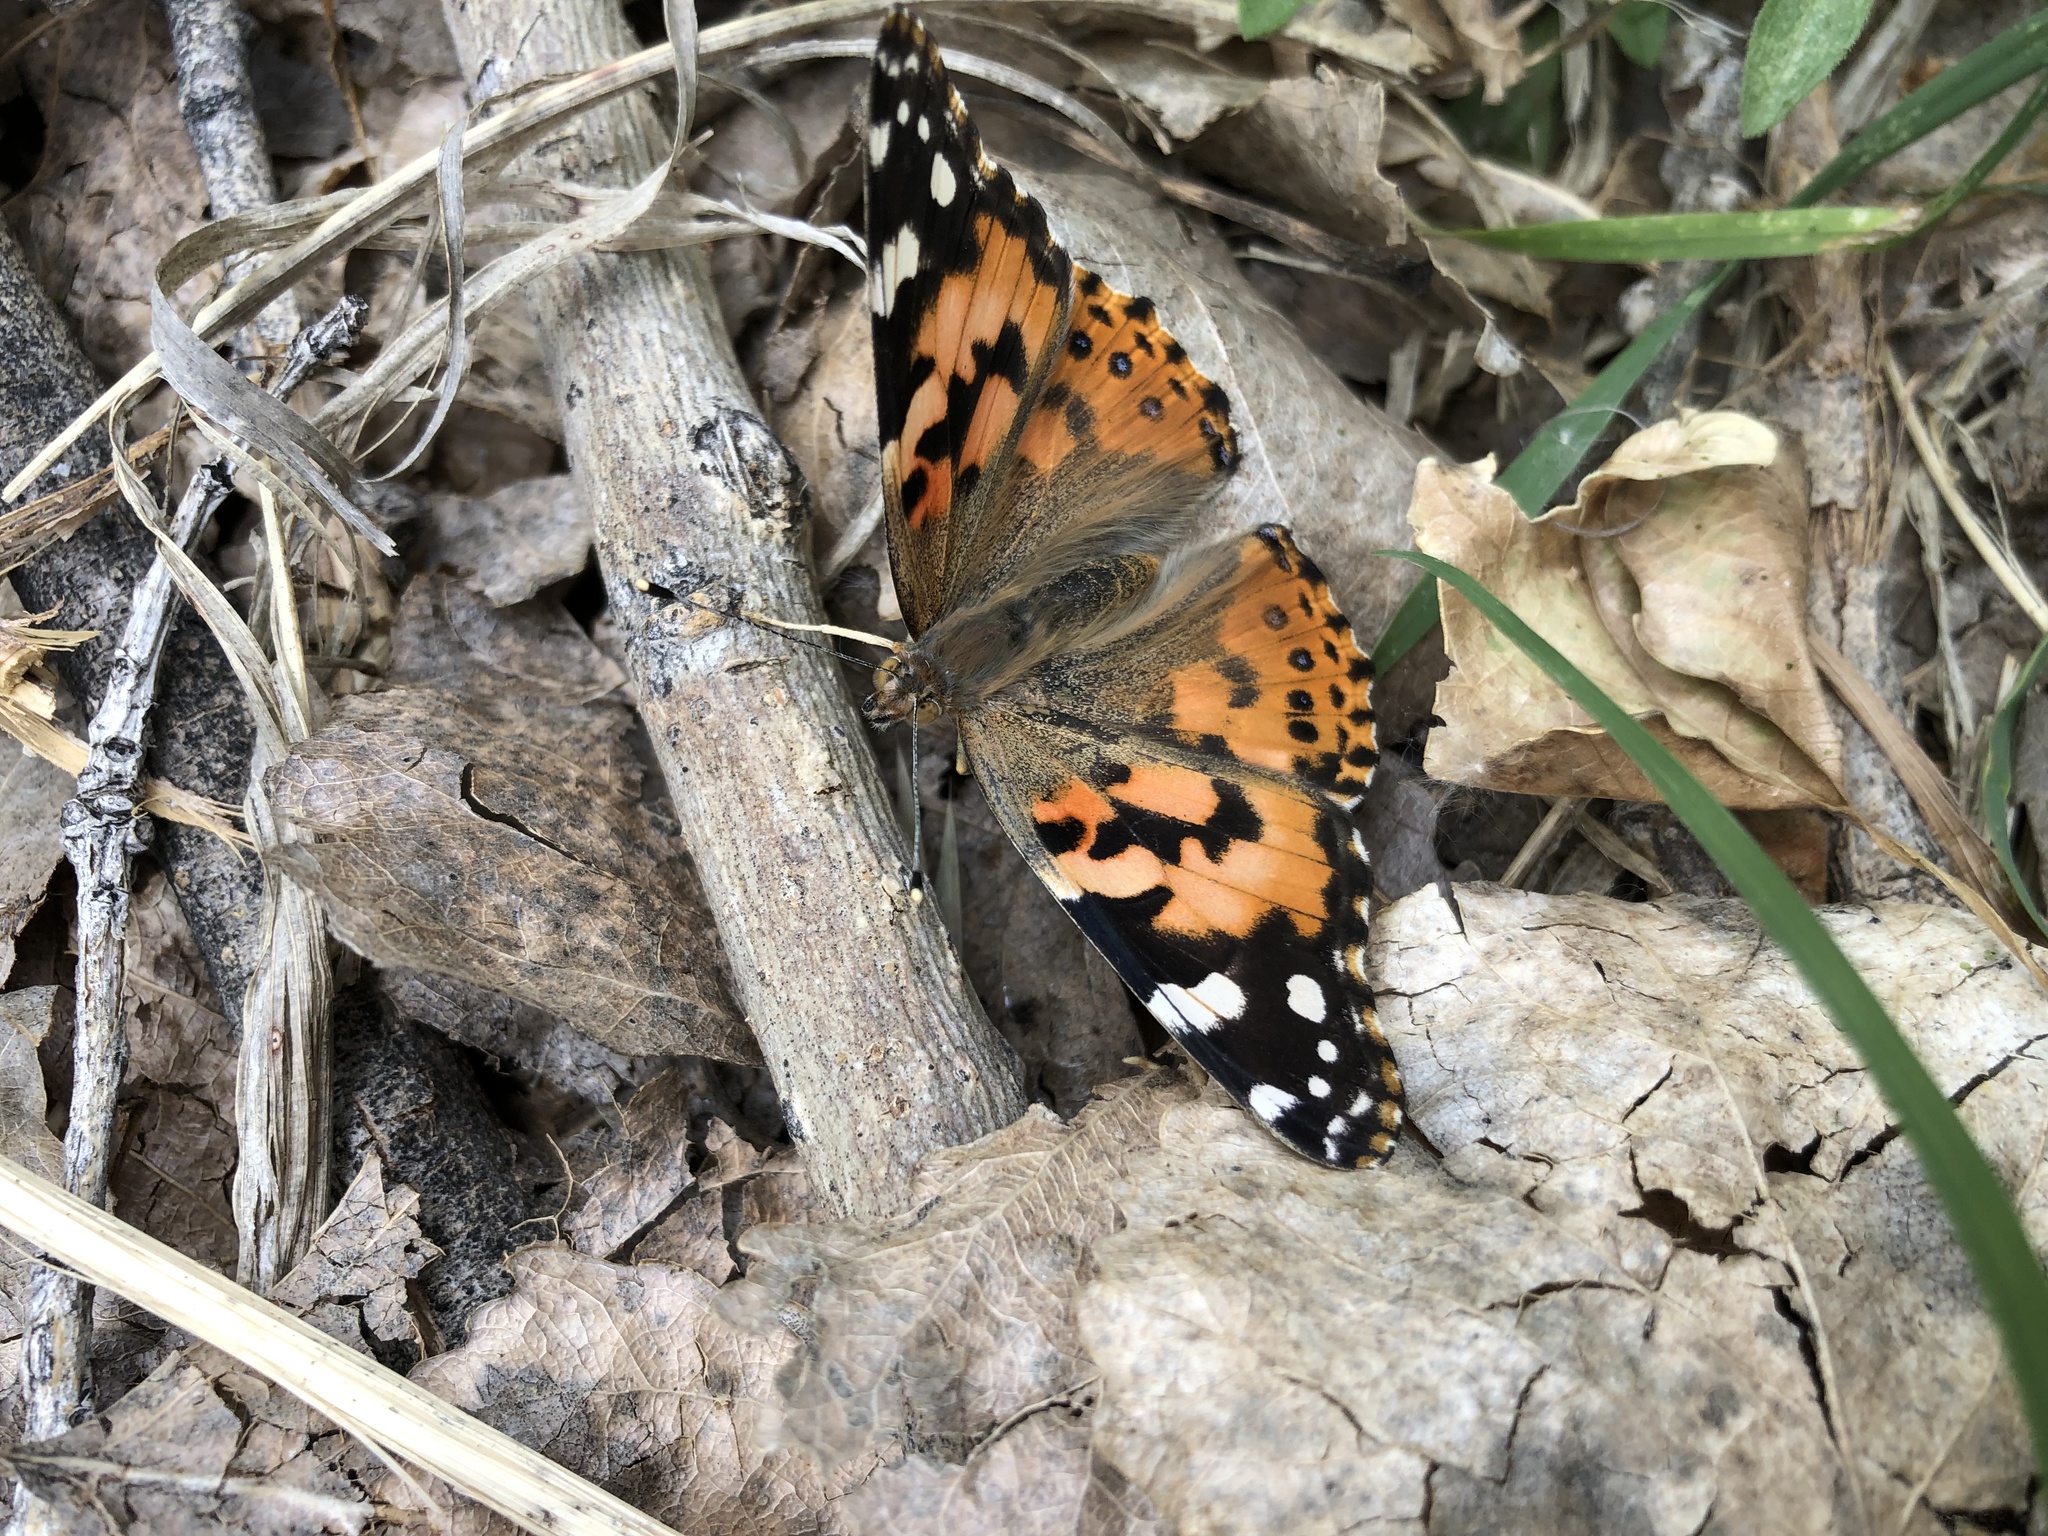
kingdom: Animalia
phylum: Arthropoda
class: Insecta
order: Lepidoptera
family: Nymphalidae
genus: Vanessa
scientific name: Vanessa cardui
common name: Painted lady
